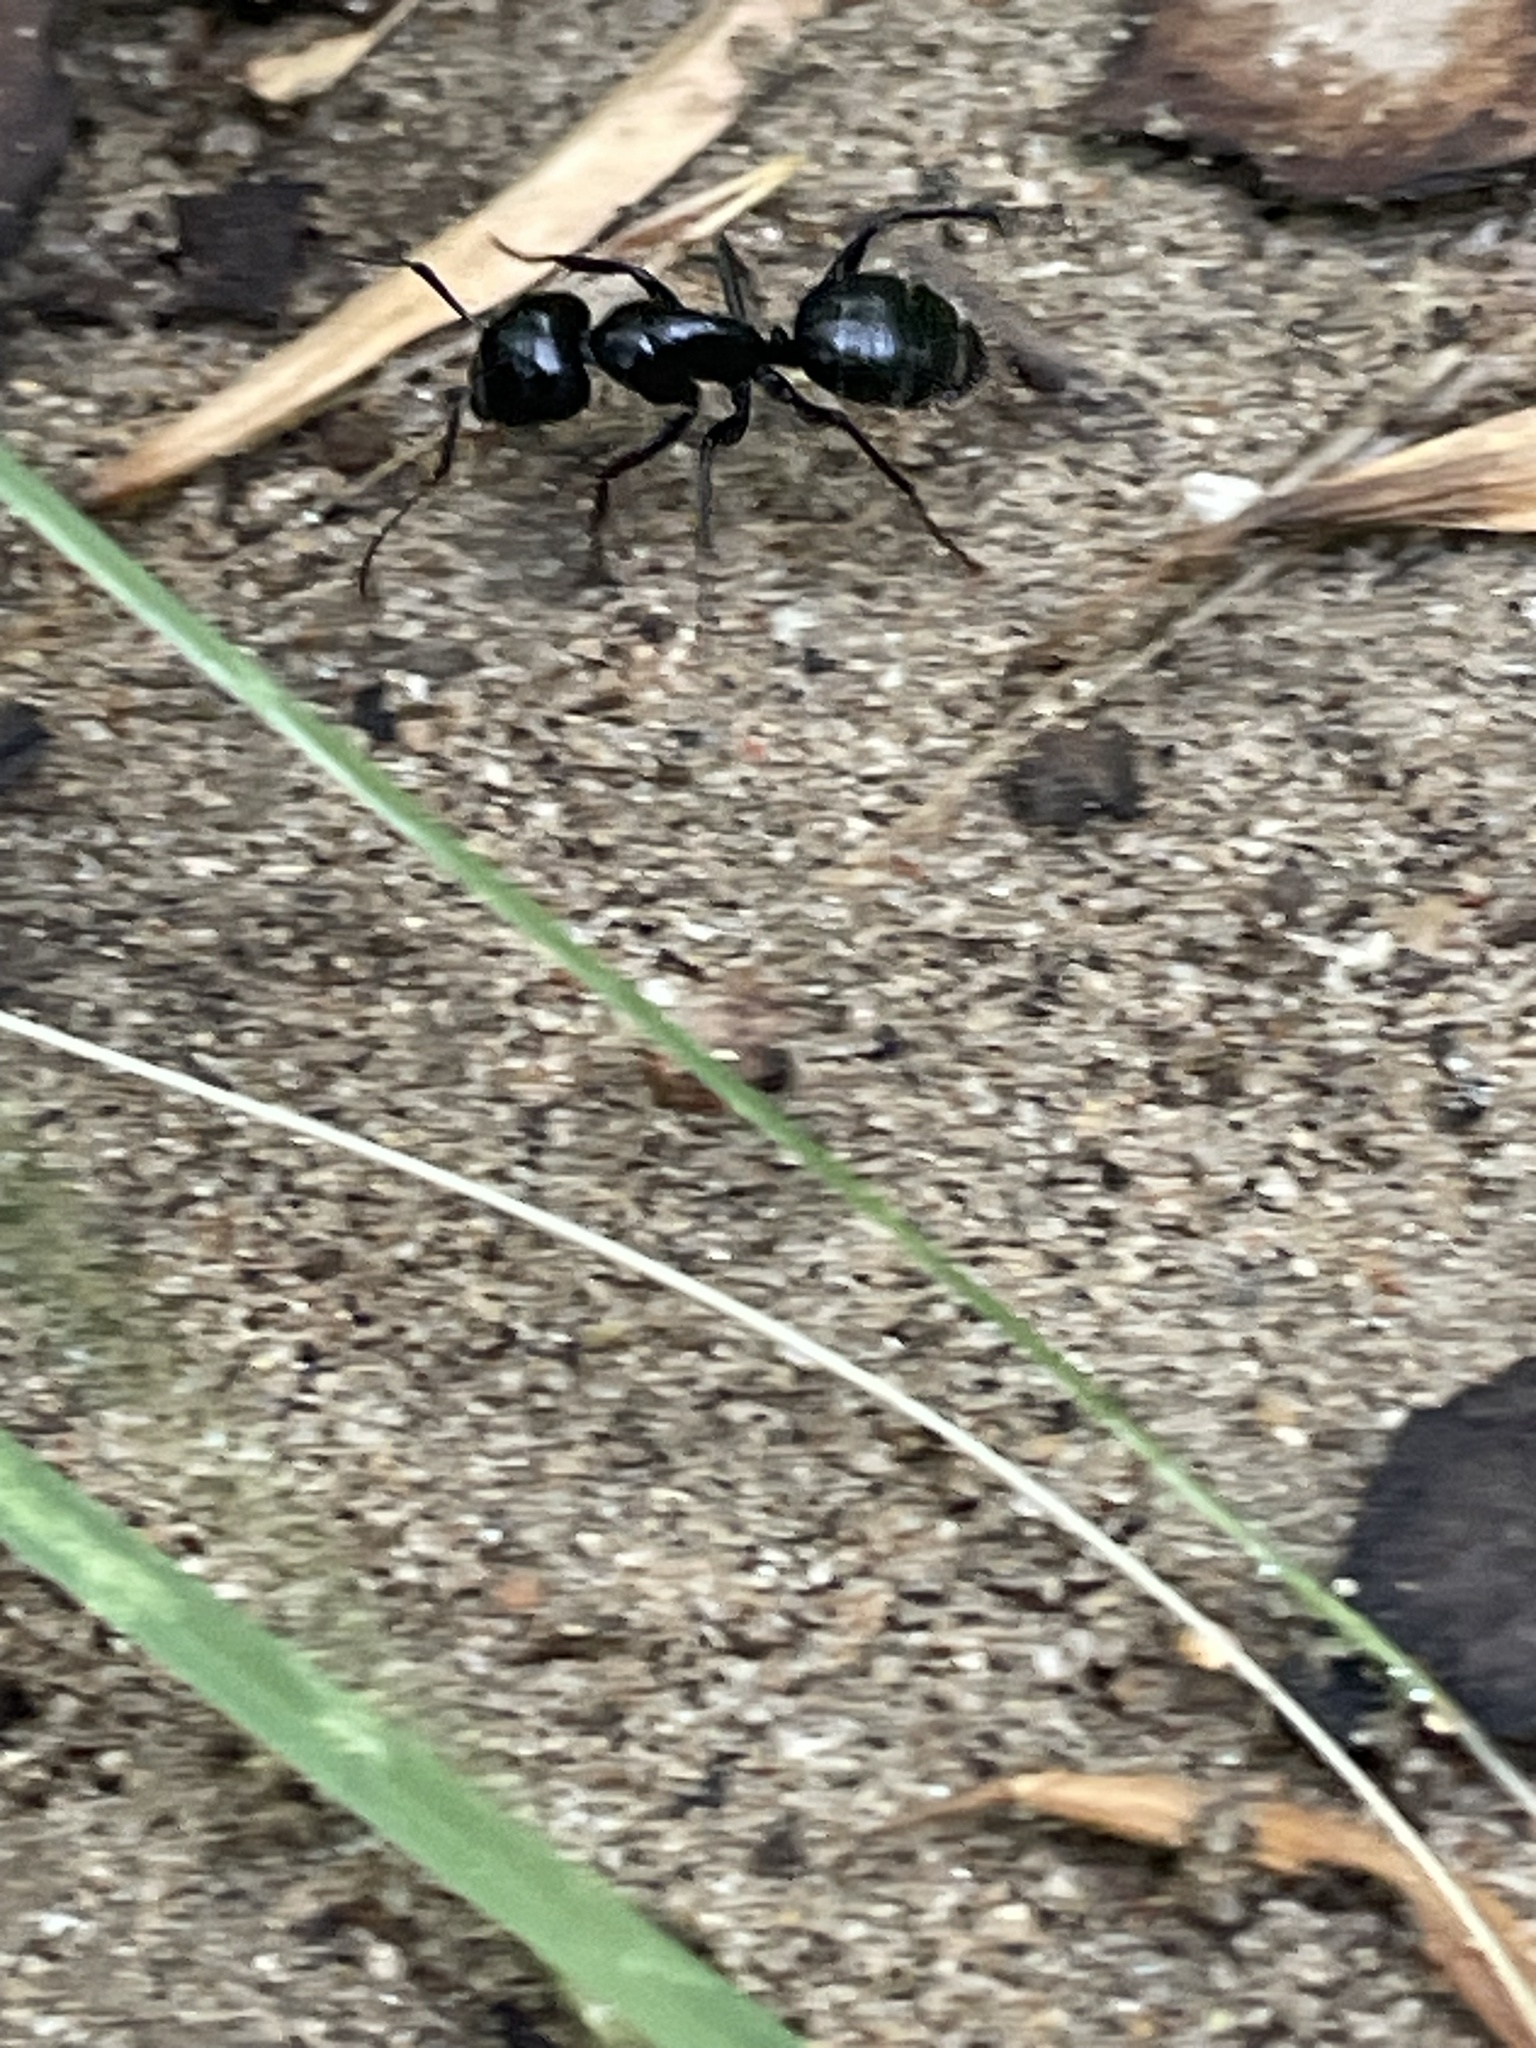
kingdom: Animalia
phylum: Arthropoda
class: Insecta
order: Hymenoptera
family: Formicidae
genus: Camponotus
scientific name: Camponotus
